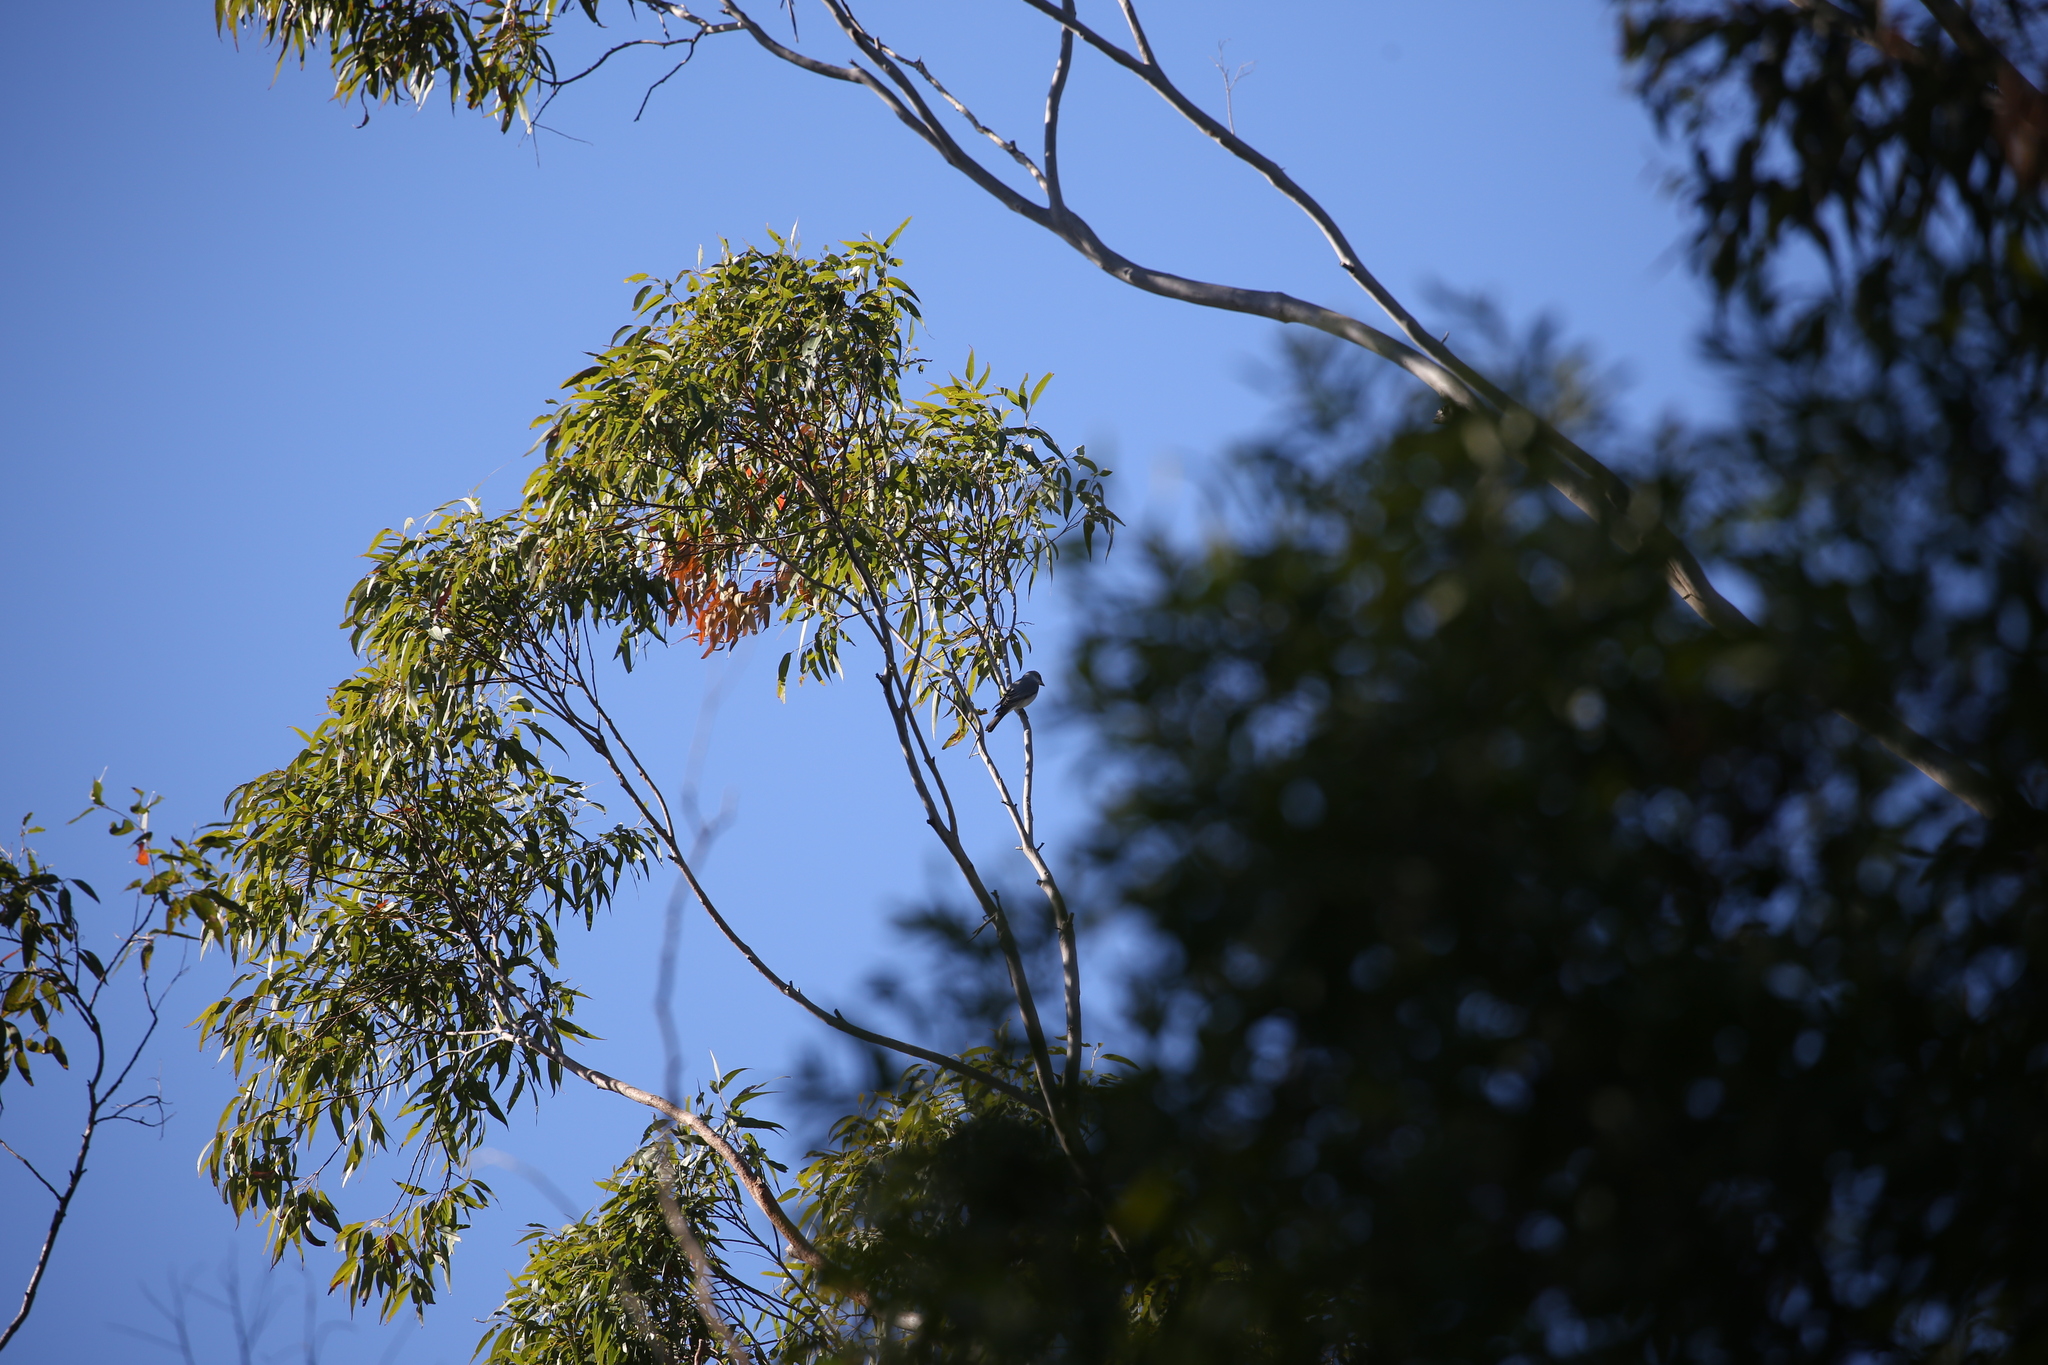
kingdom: Animalia
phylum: Chordata
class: Aves
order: Passeriformes
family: Campephagidae
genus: Coracina
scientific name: Coracina papuensis
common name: White-bellied cuckooshrike
